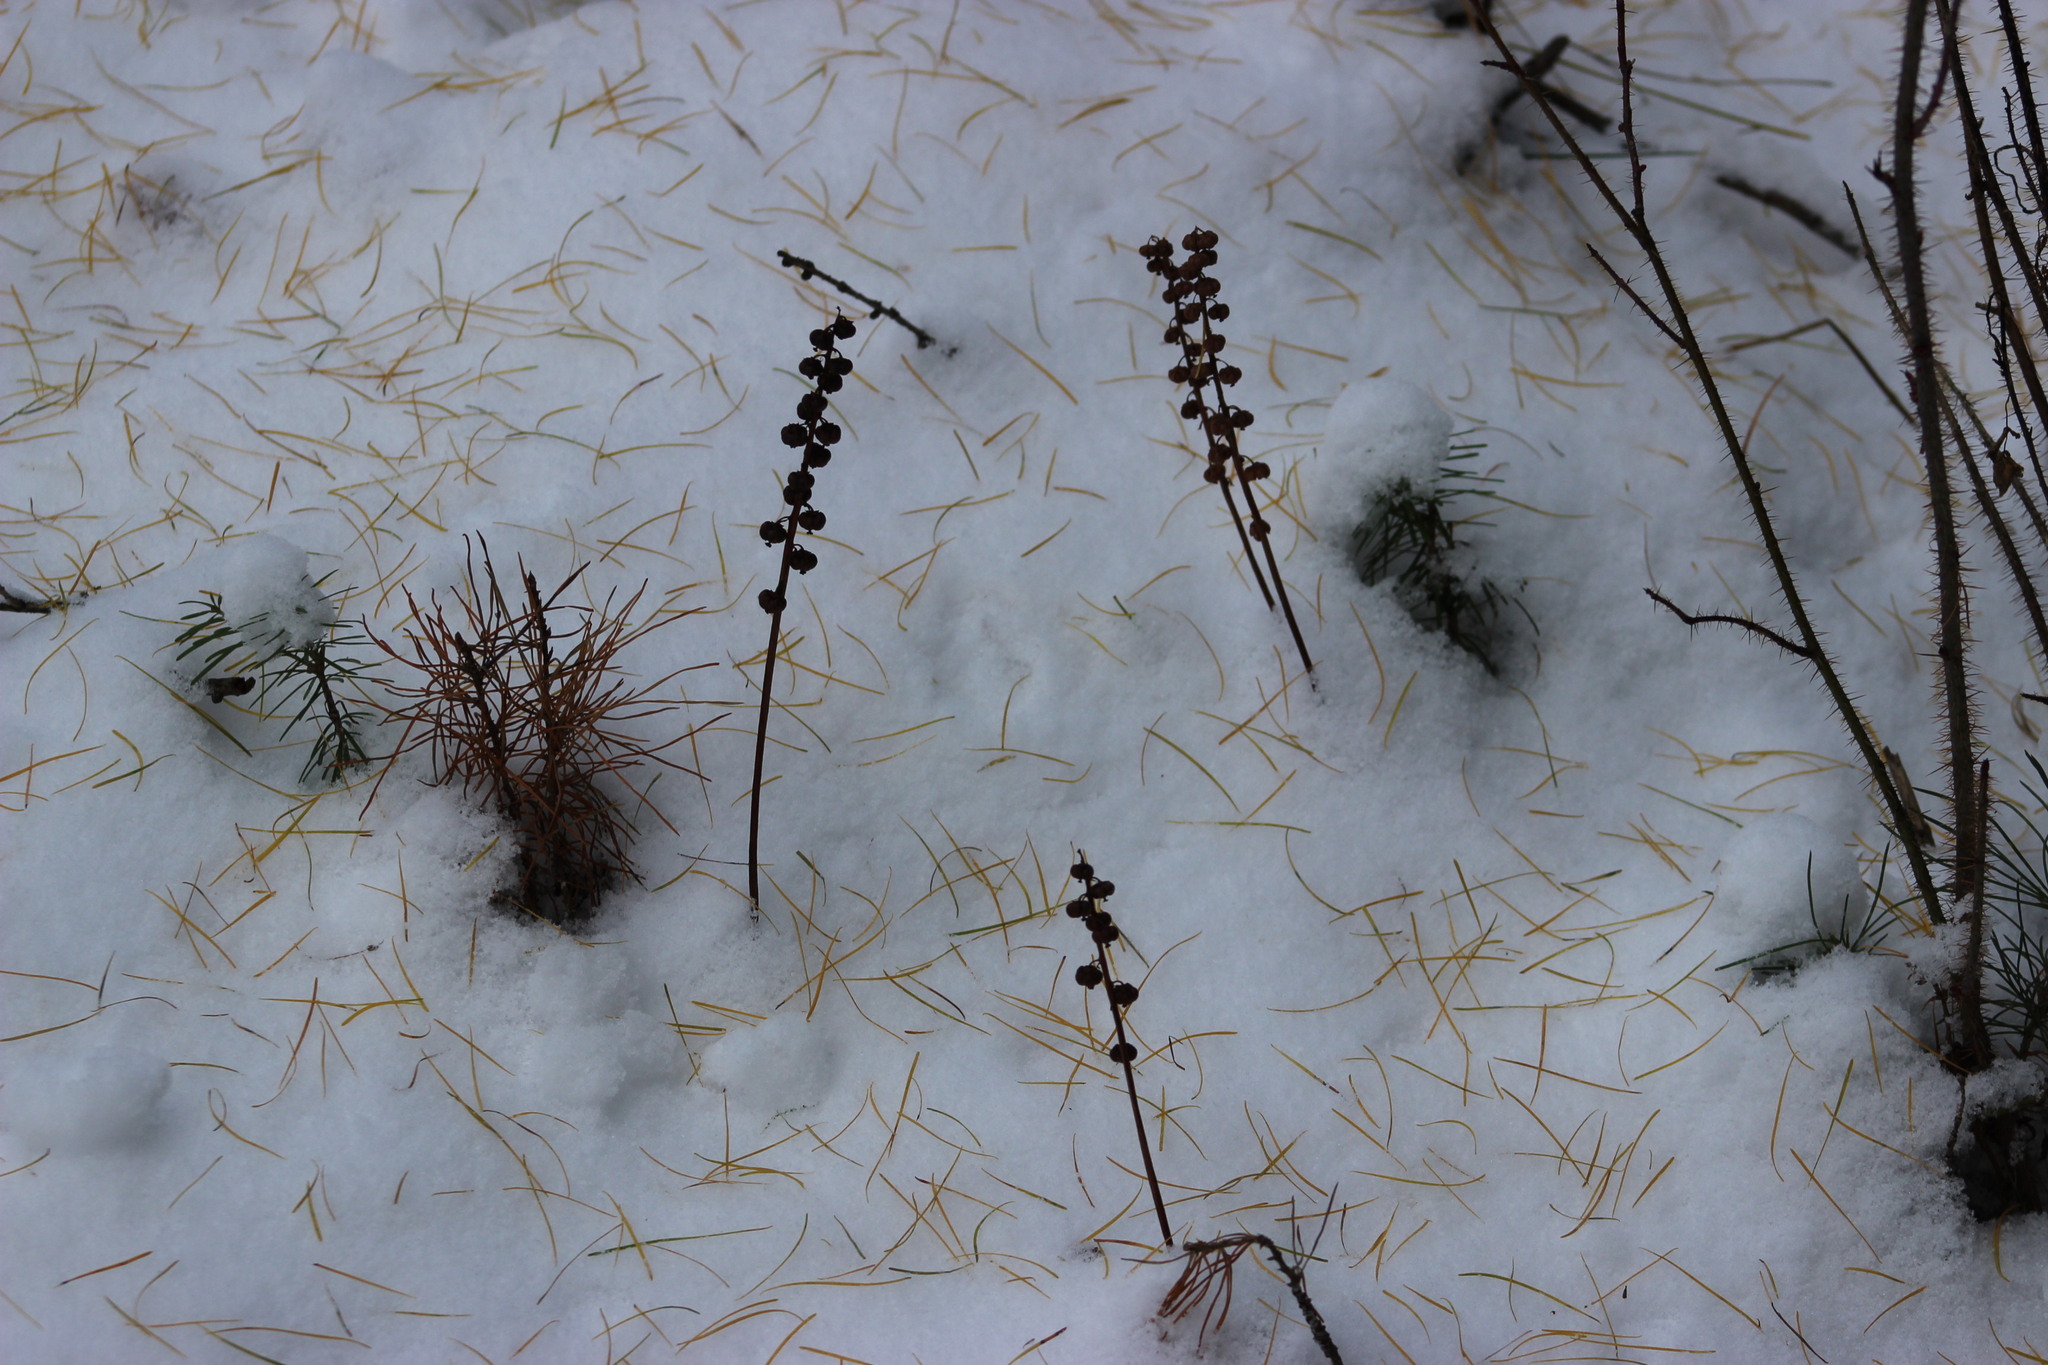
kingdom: Plantae
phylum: Tracheophyta
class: Magnoliopsida
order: Ericales
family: Ericaceae
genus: Pyrola
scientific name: Pyrola minor
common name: Common wintergreen
